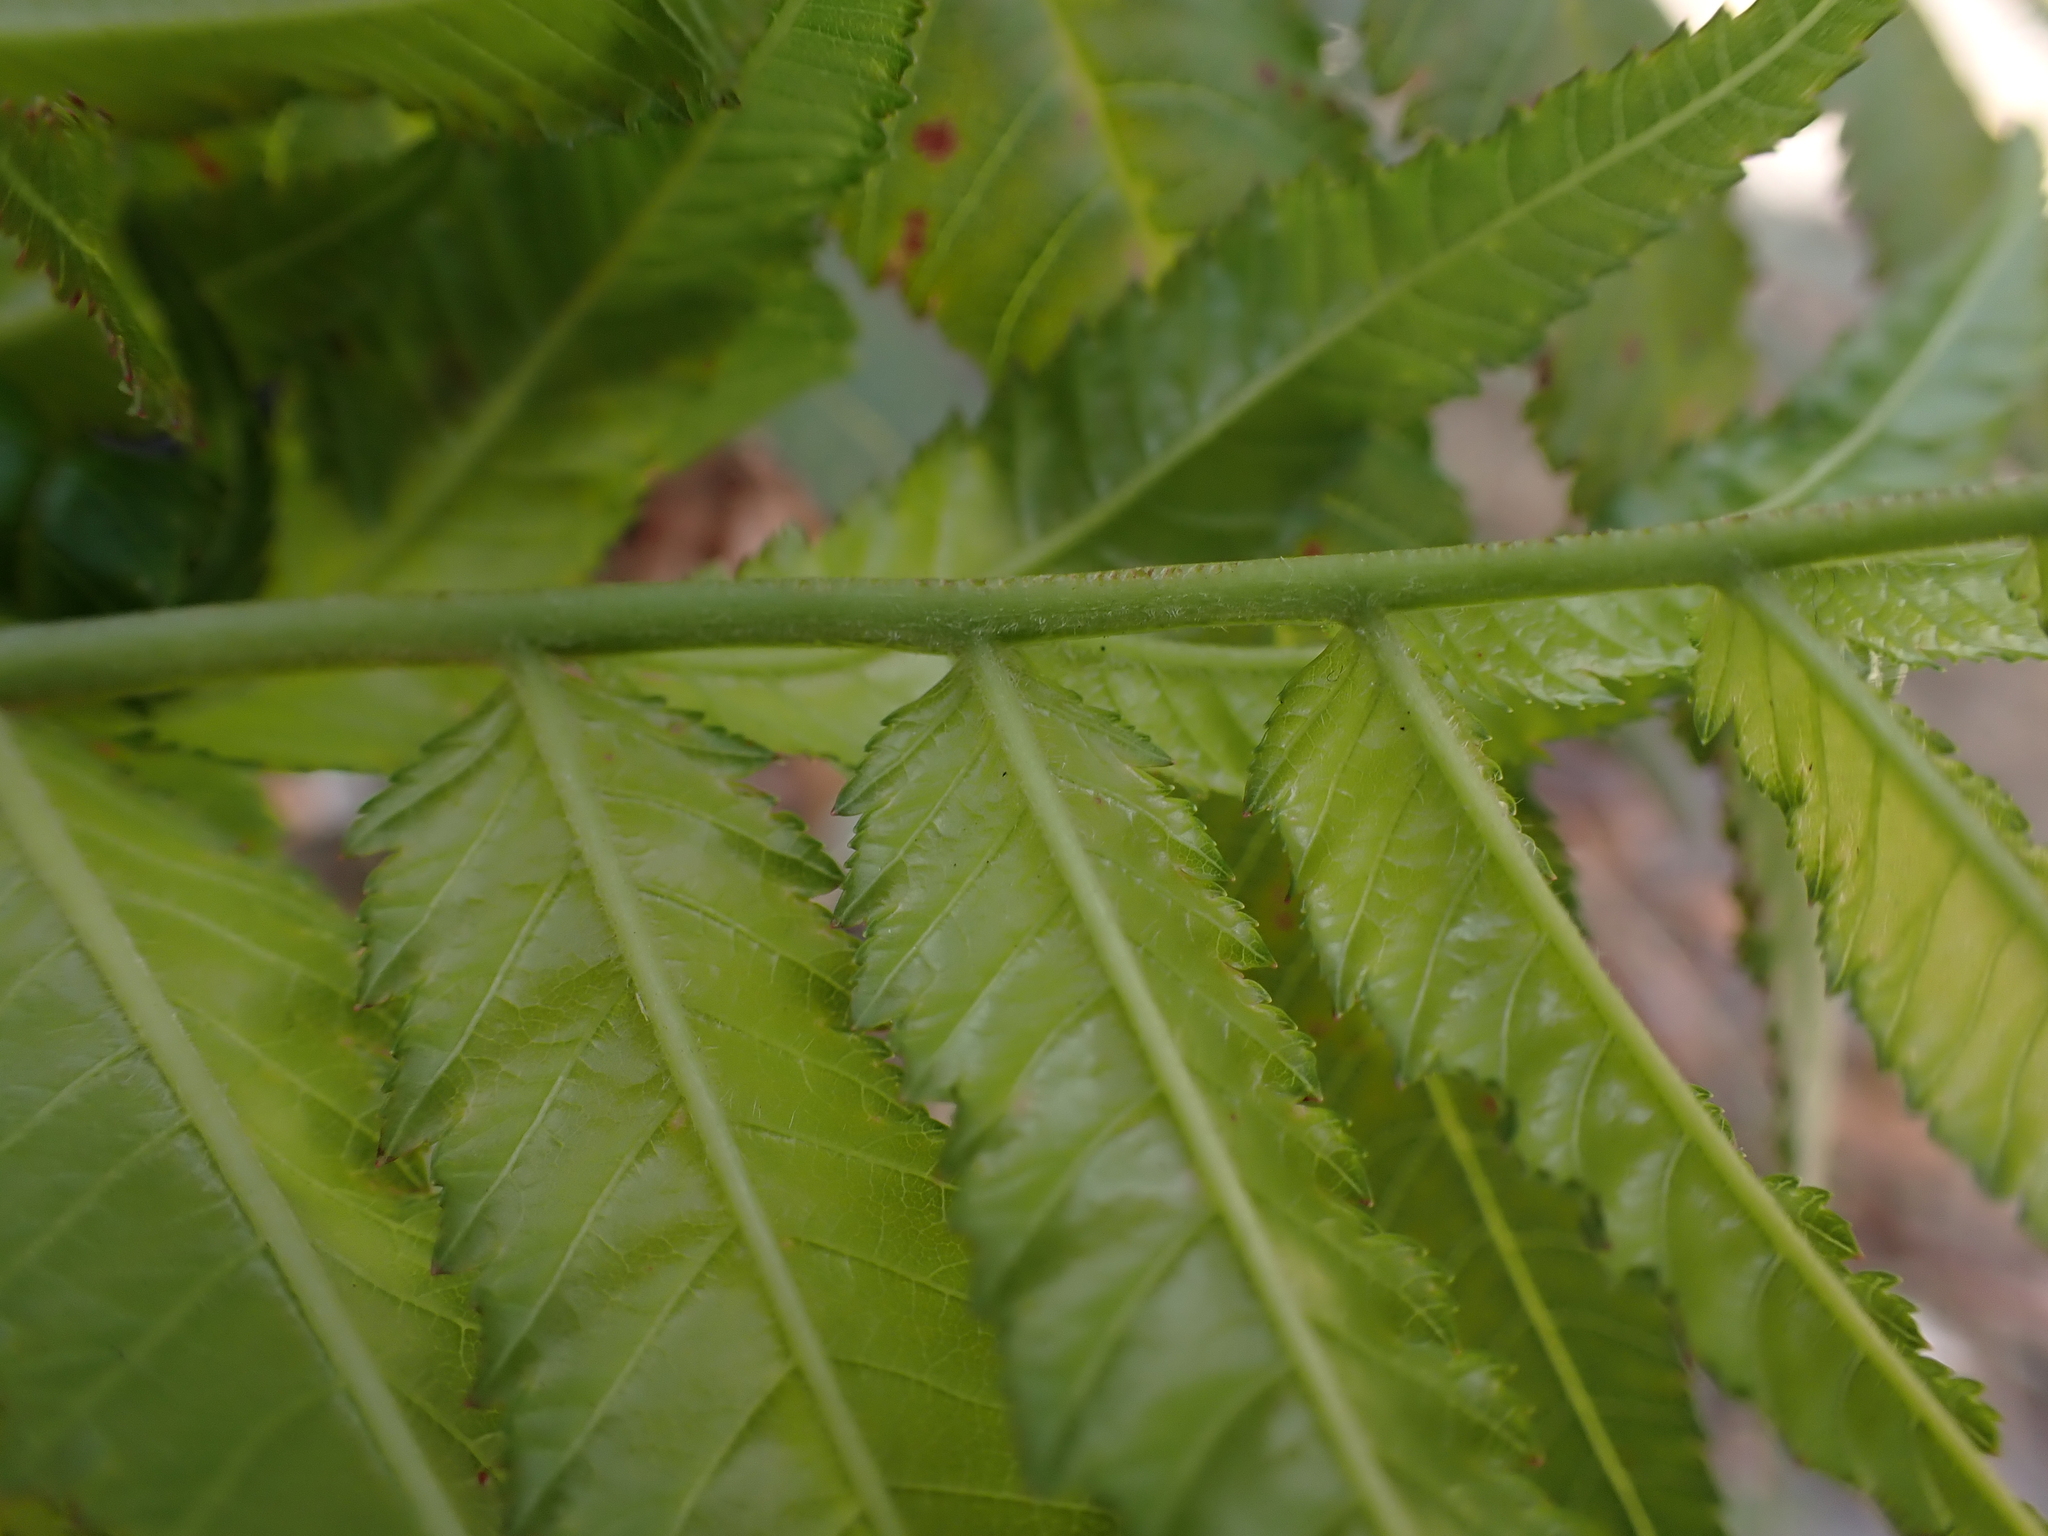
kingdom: Plantae
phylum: Tracheophyta
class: Magnoliopsida
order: Rosales
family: Rosaceae
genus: Sorbaria
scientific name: Sorbaria tomentosa
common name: Himalayan sorbaria
